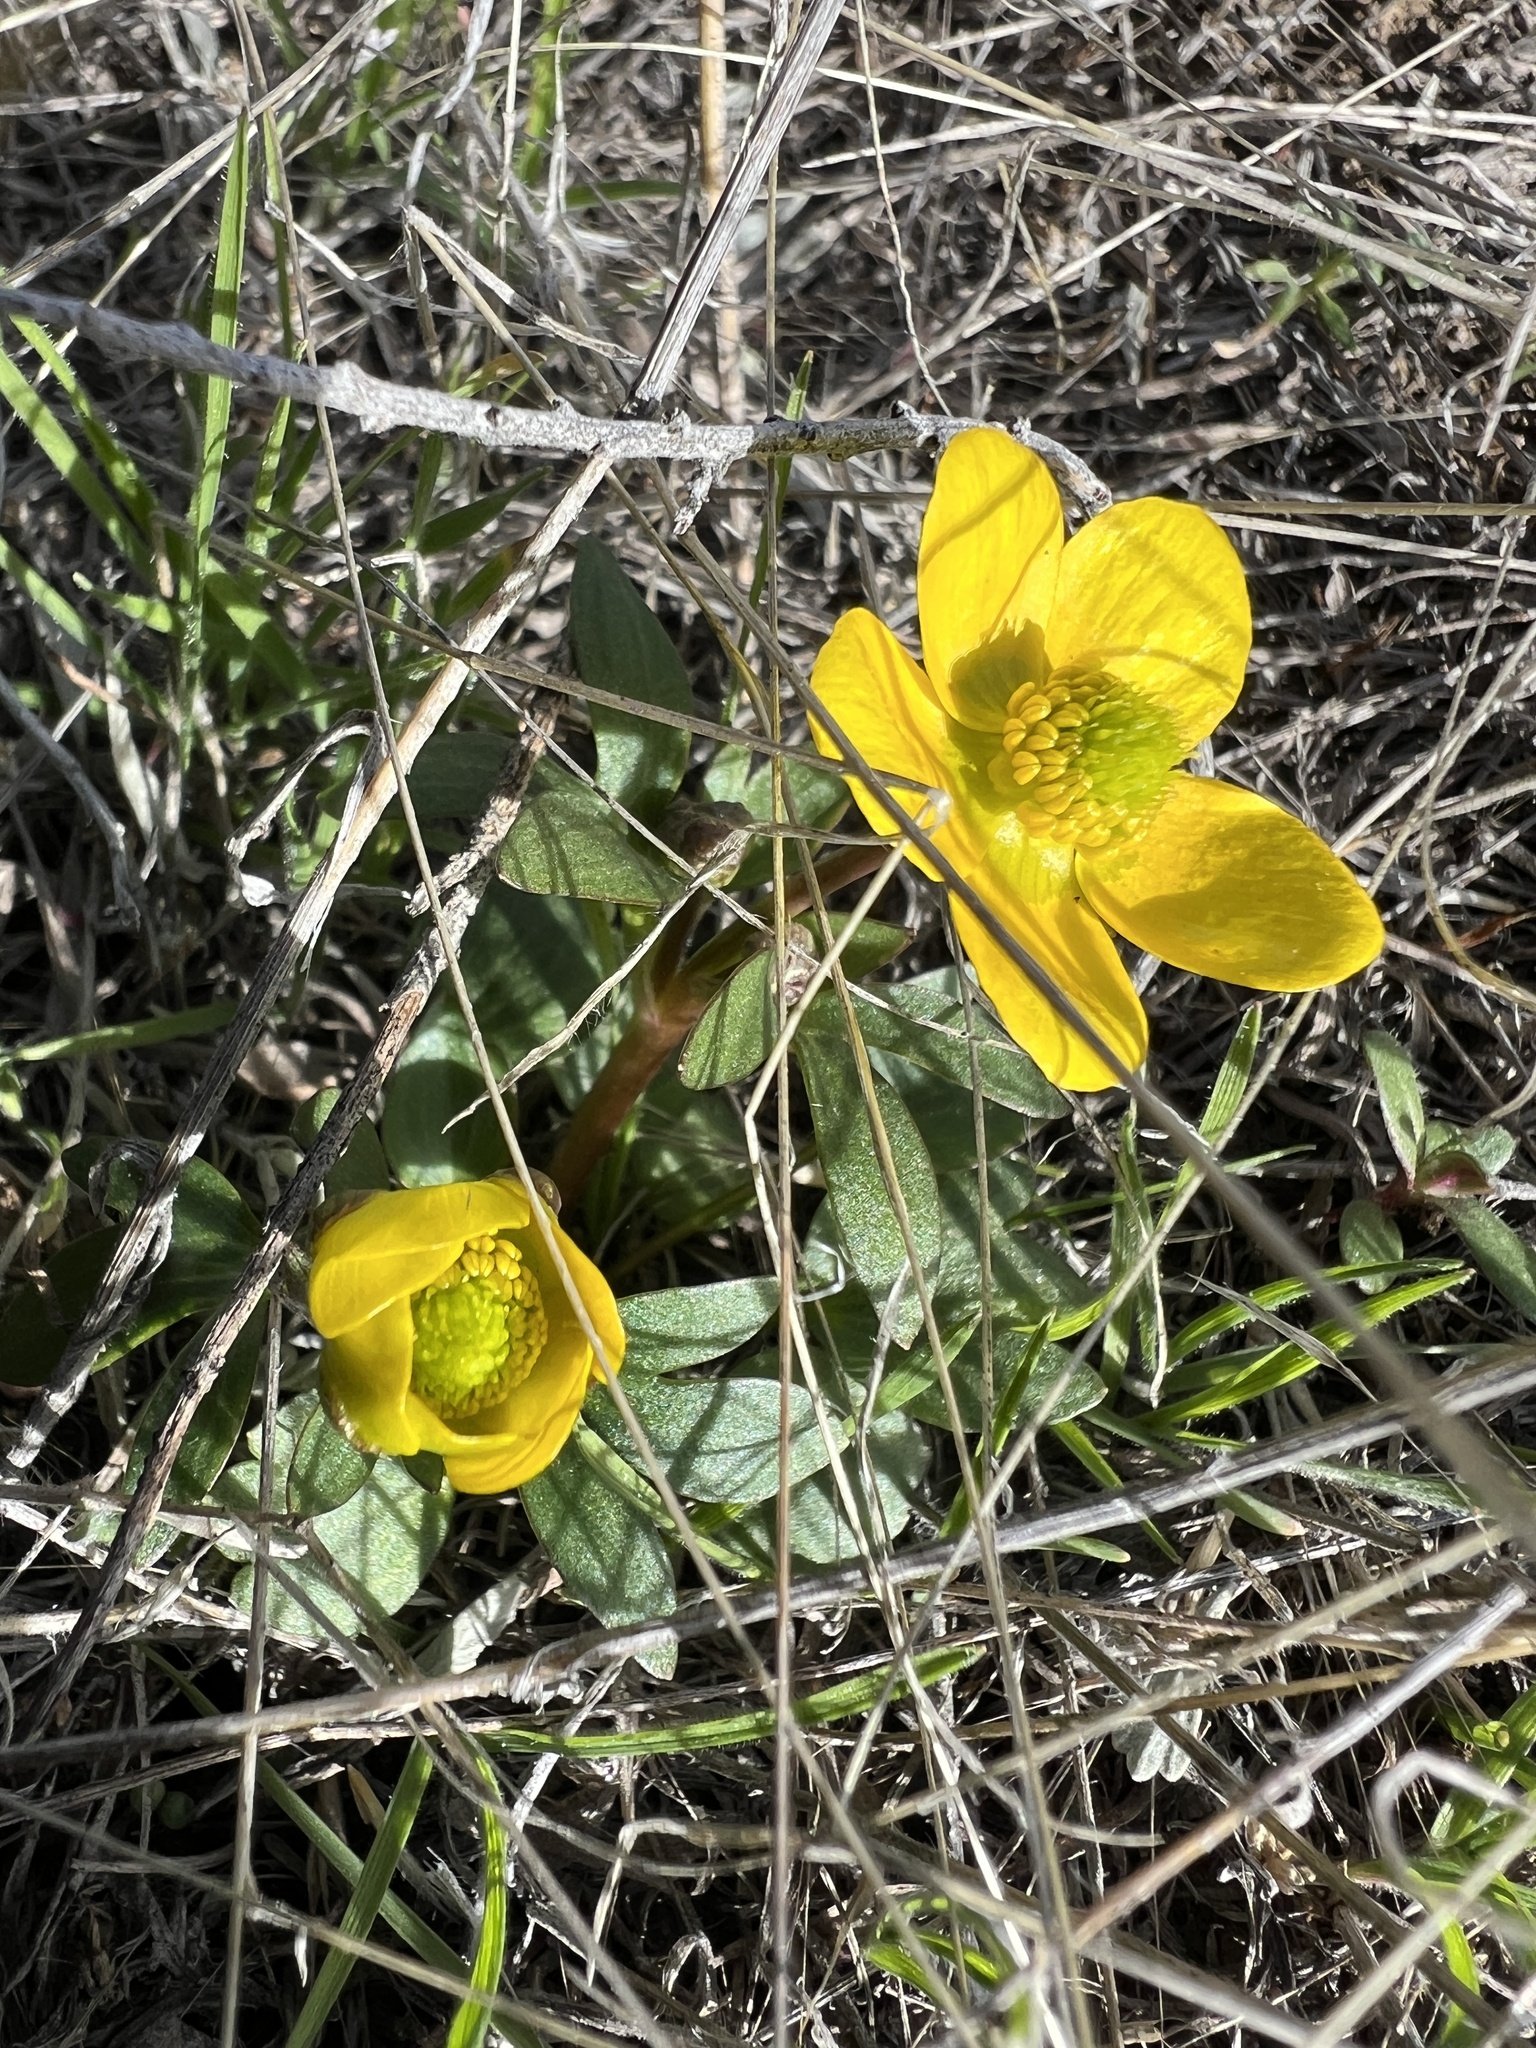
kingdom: Plantae
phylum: Tracheophyta
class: Magnoliopsida
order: Ranunculales
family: Ranunculaceae
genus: Ranunculus
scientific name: Ranunculus glaberrimus
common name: Sagebrush buttercup
